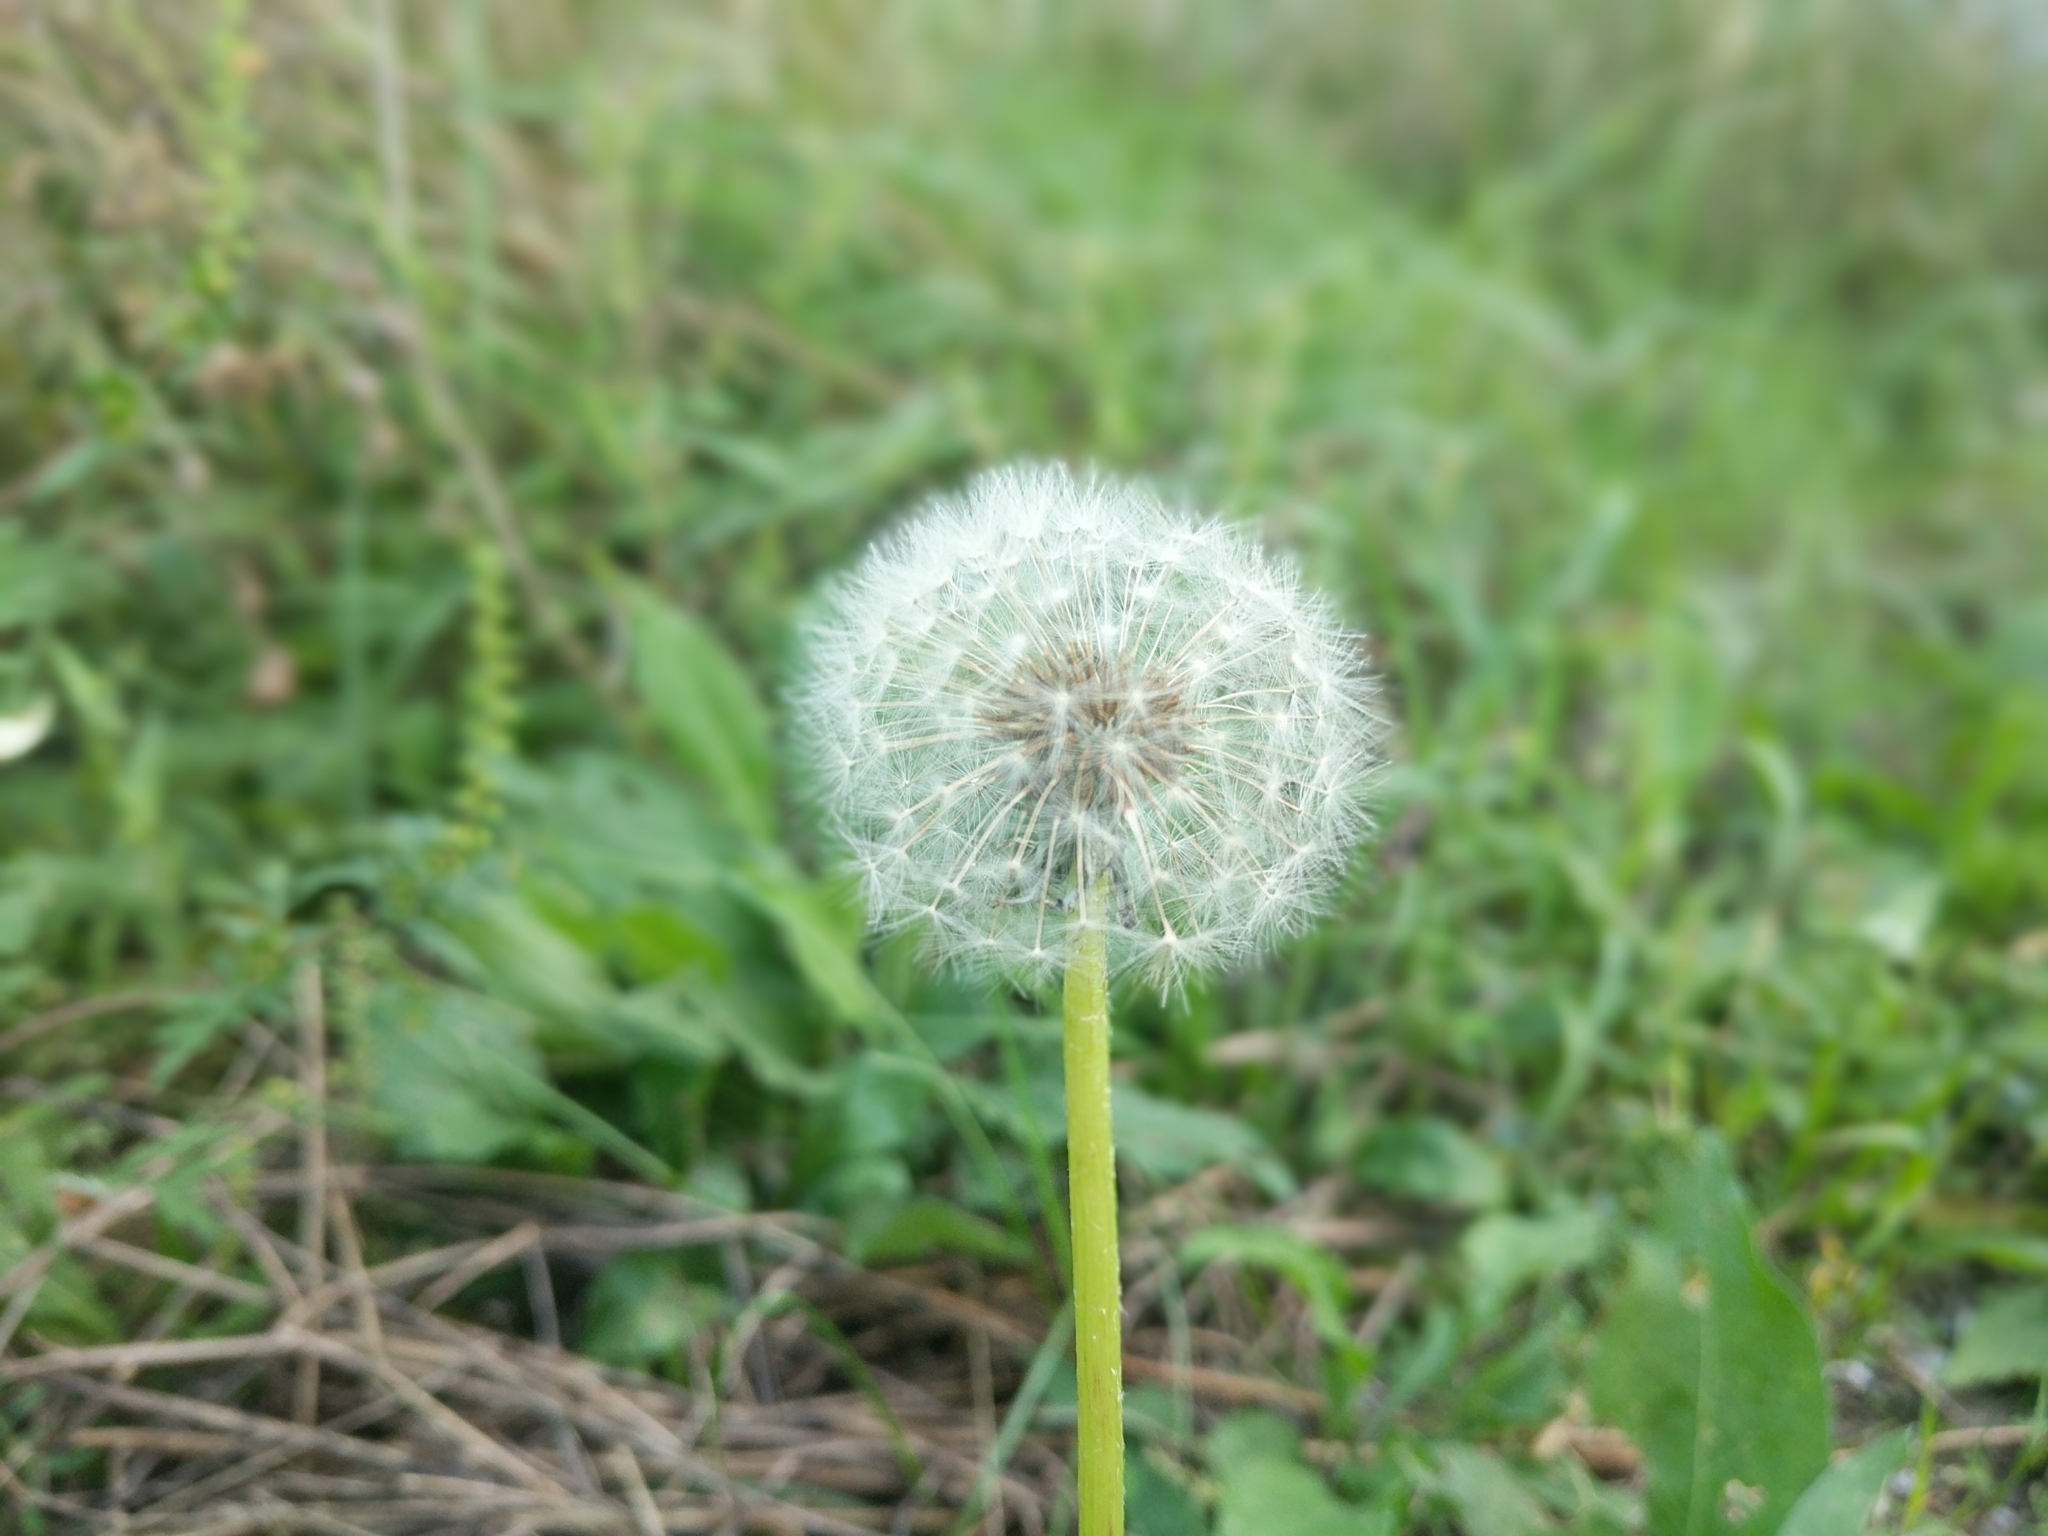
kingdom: Plantae
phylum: Tracheophyta
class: Magnoliopsida
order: Asterales
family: Asteraceae
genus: Taraxacum
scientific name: Taraxacum officinale
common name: Common dandelion
